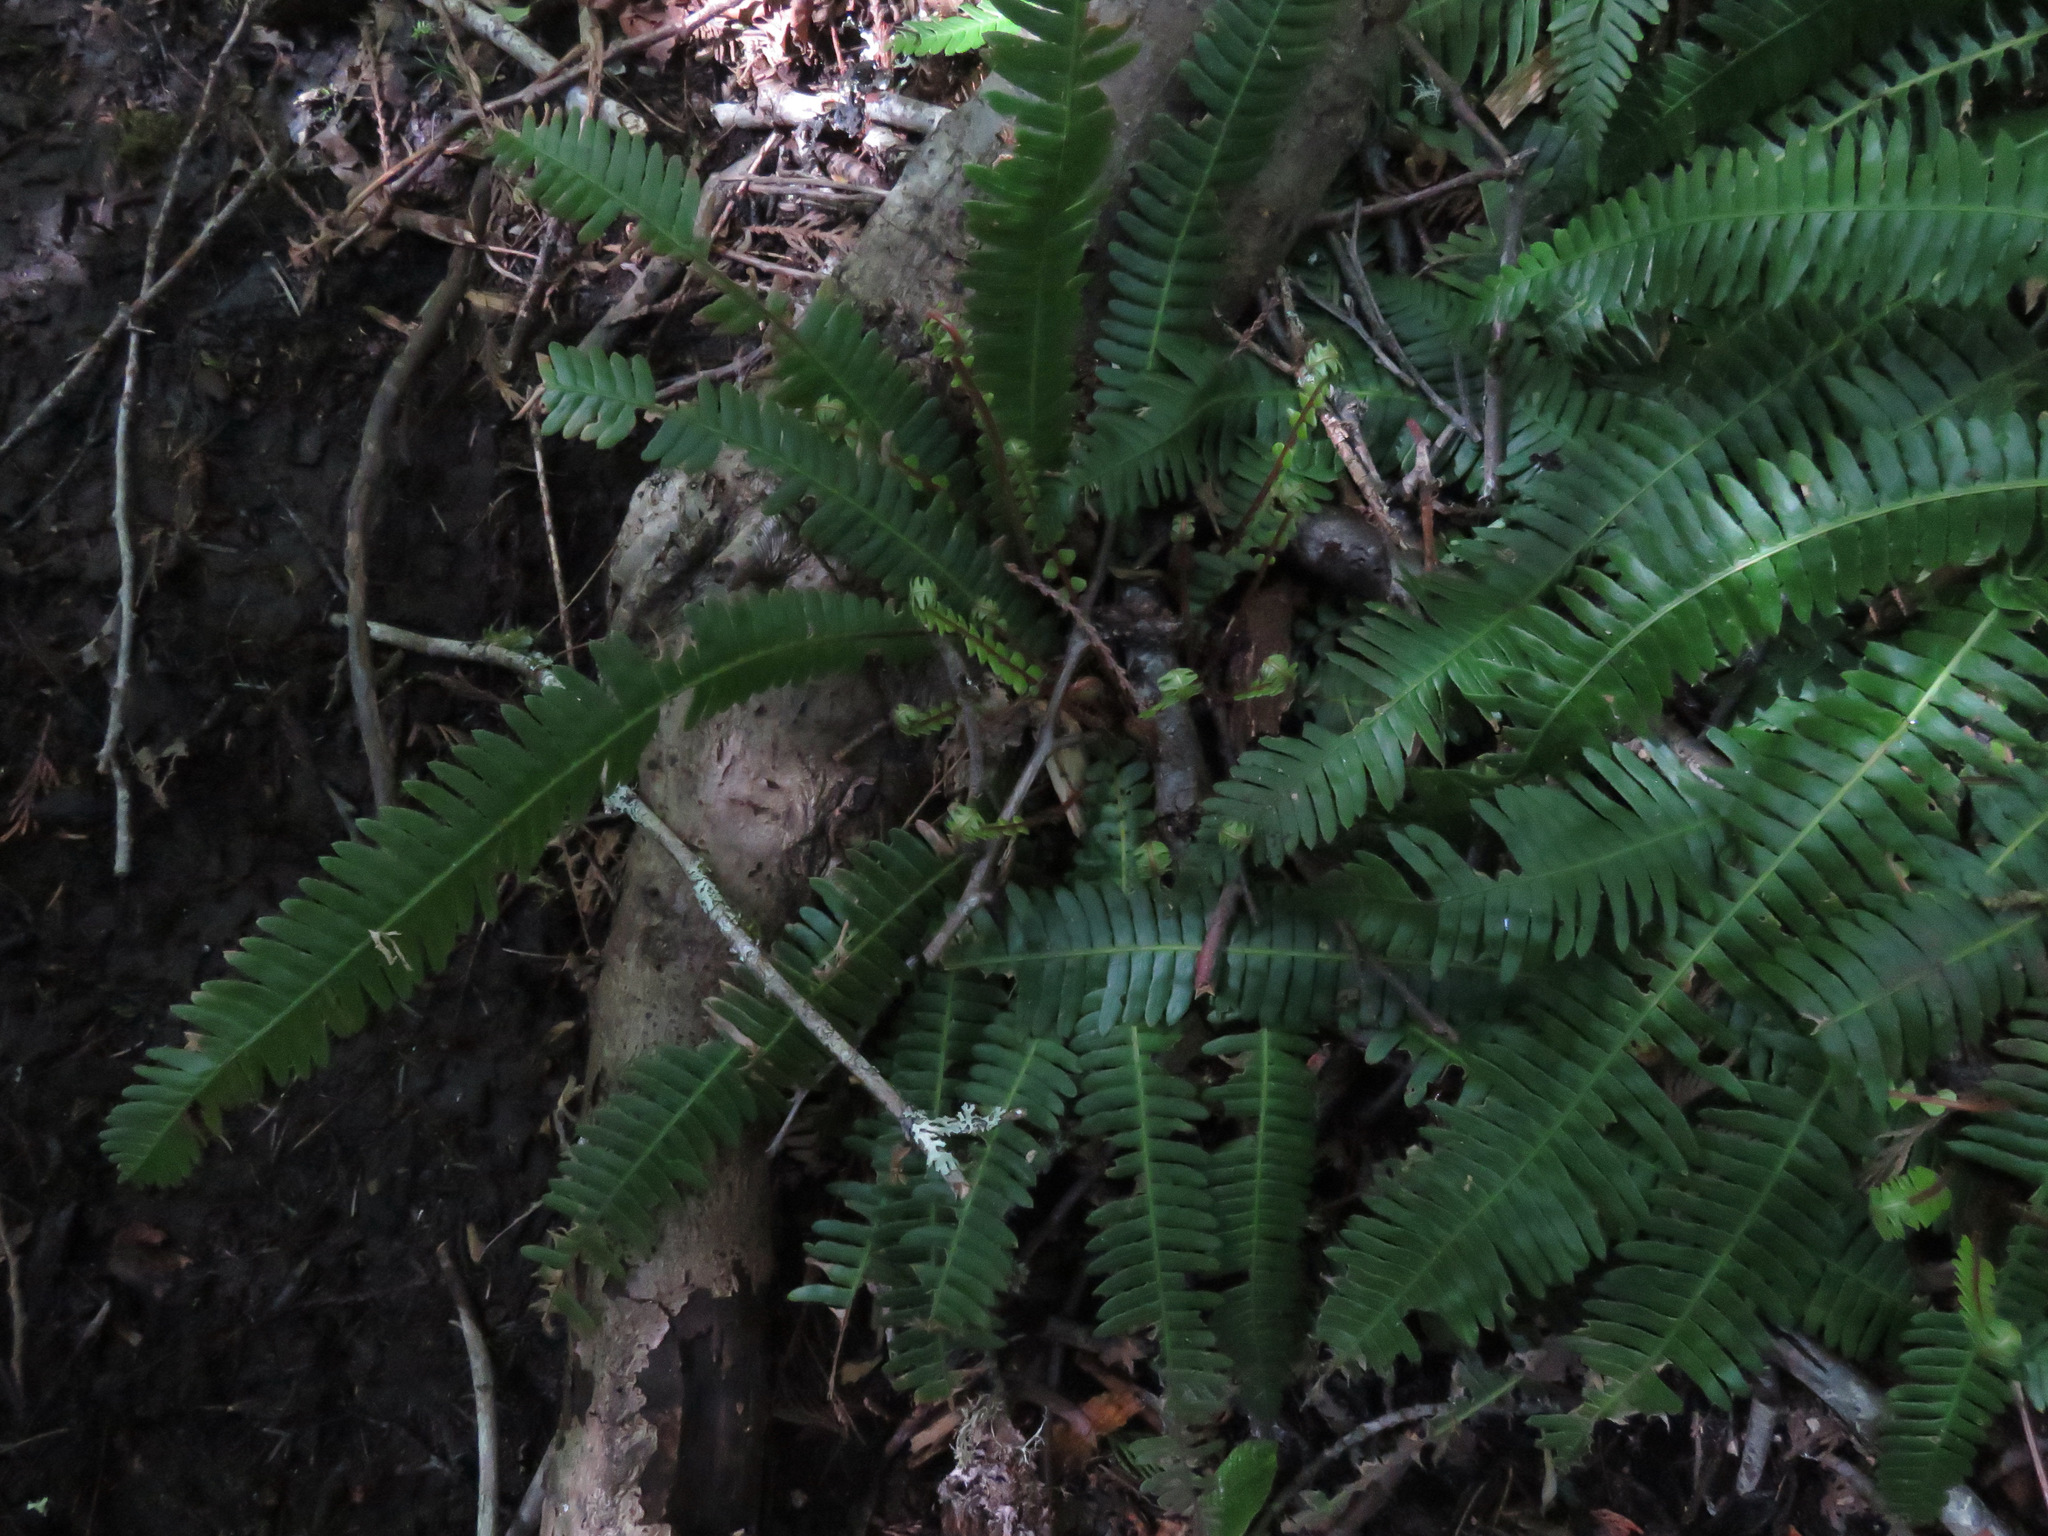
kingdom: Plantae
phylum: Tracheophyta
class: Polypodiopsida
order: Polypodiales
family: Blechnaceae
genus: Struthiopteris
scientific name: Struthiopteris spicant
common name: Deer fern
